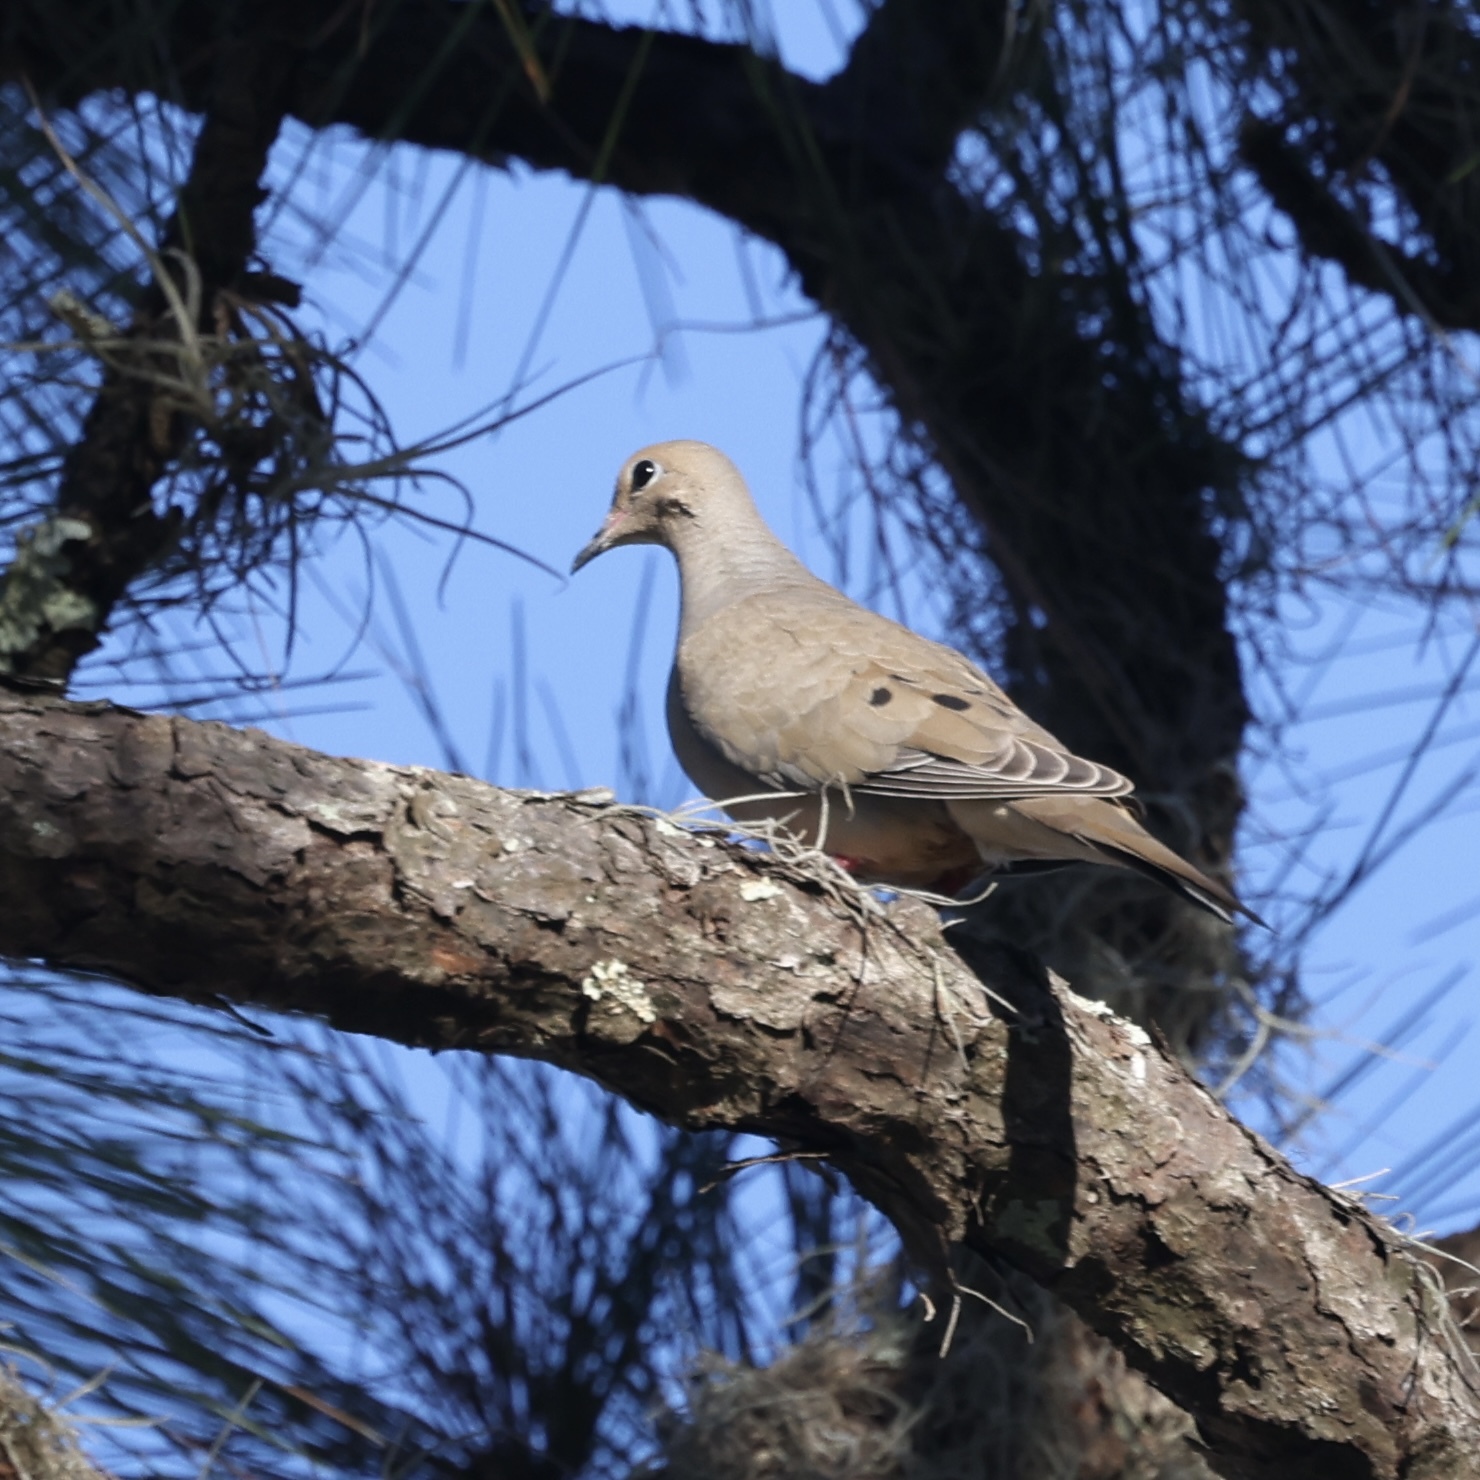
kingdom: Animalia
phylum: Chordata
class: Aves
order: Columbiformes
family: Columbidae
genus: Zenaida
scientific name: Zenaida macroura
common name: Mourning dove
